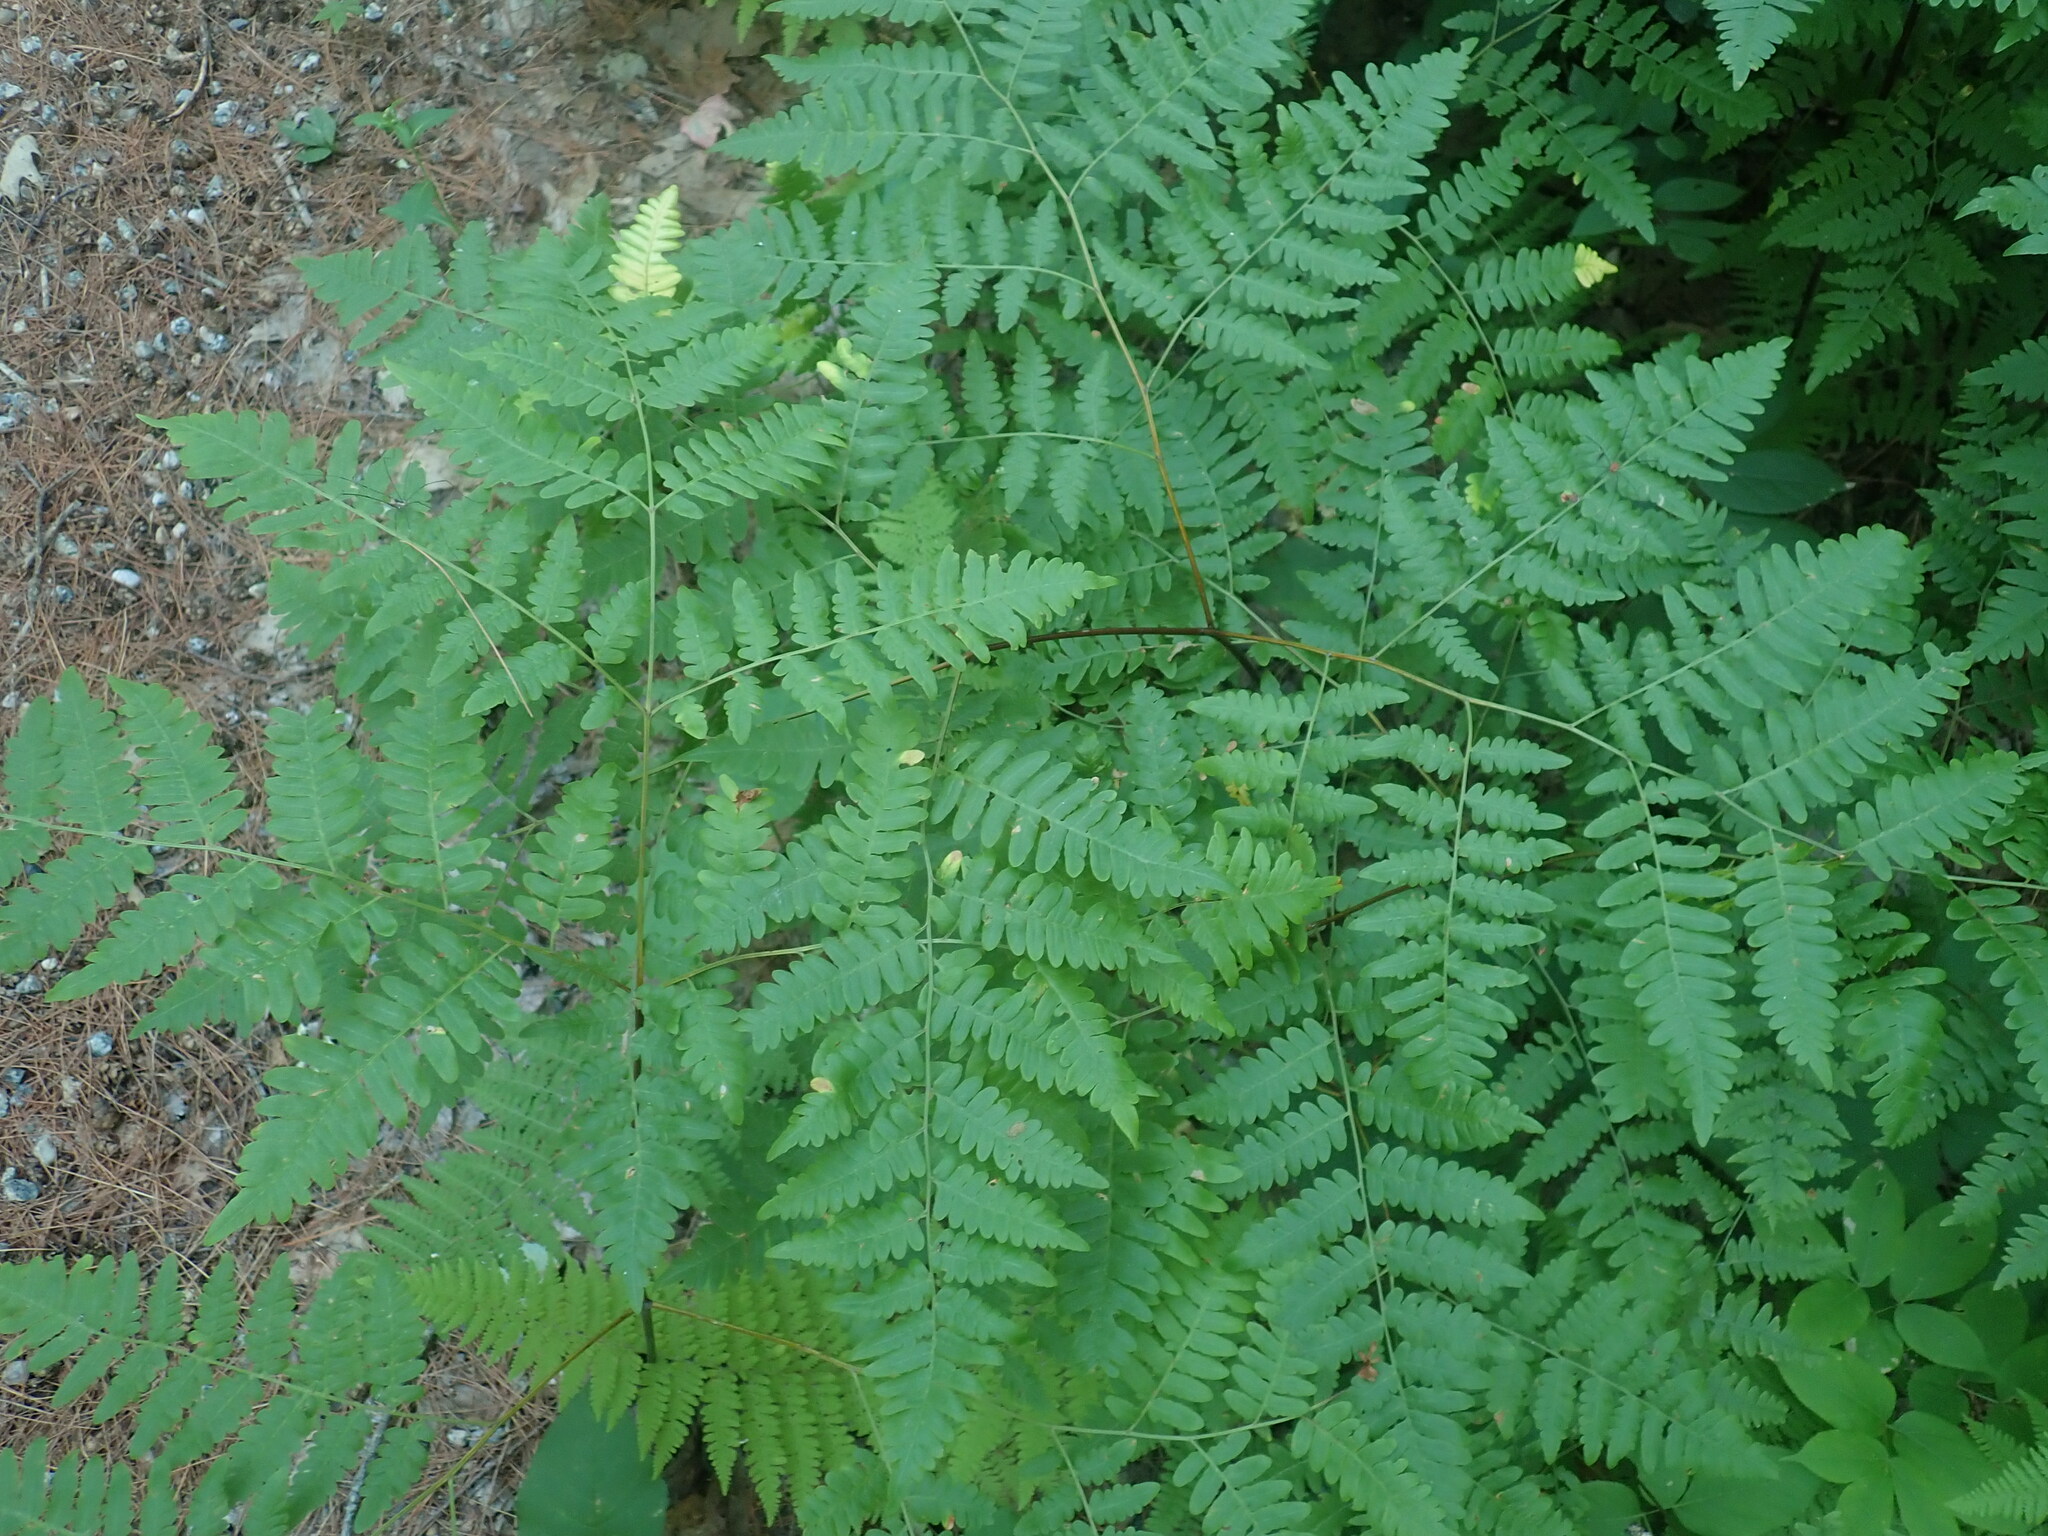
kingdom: Plantae
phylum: Tracheophyta
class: Polypodiopsida
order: Polypodiales
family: Dennstaedtiaceae
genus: Pteridium
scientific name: Pteridium aquilinum
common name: Bracken
